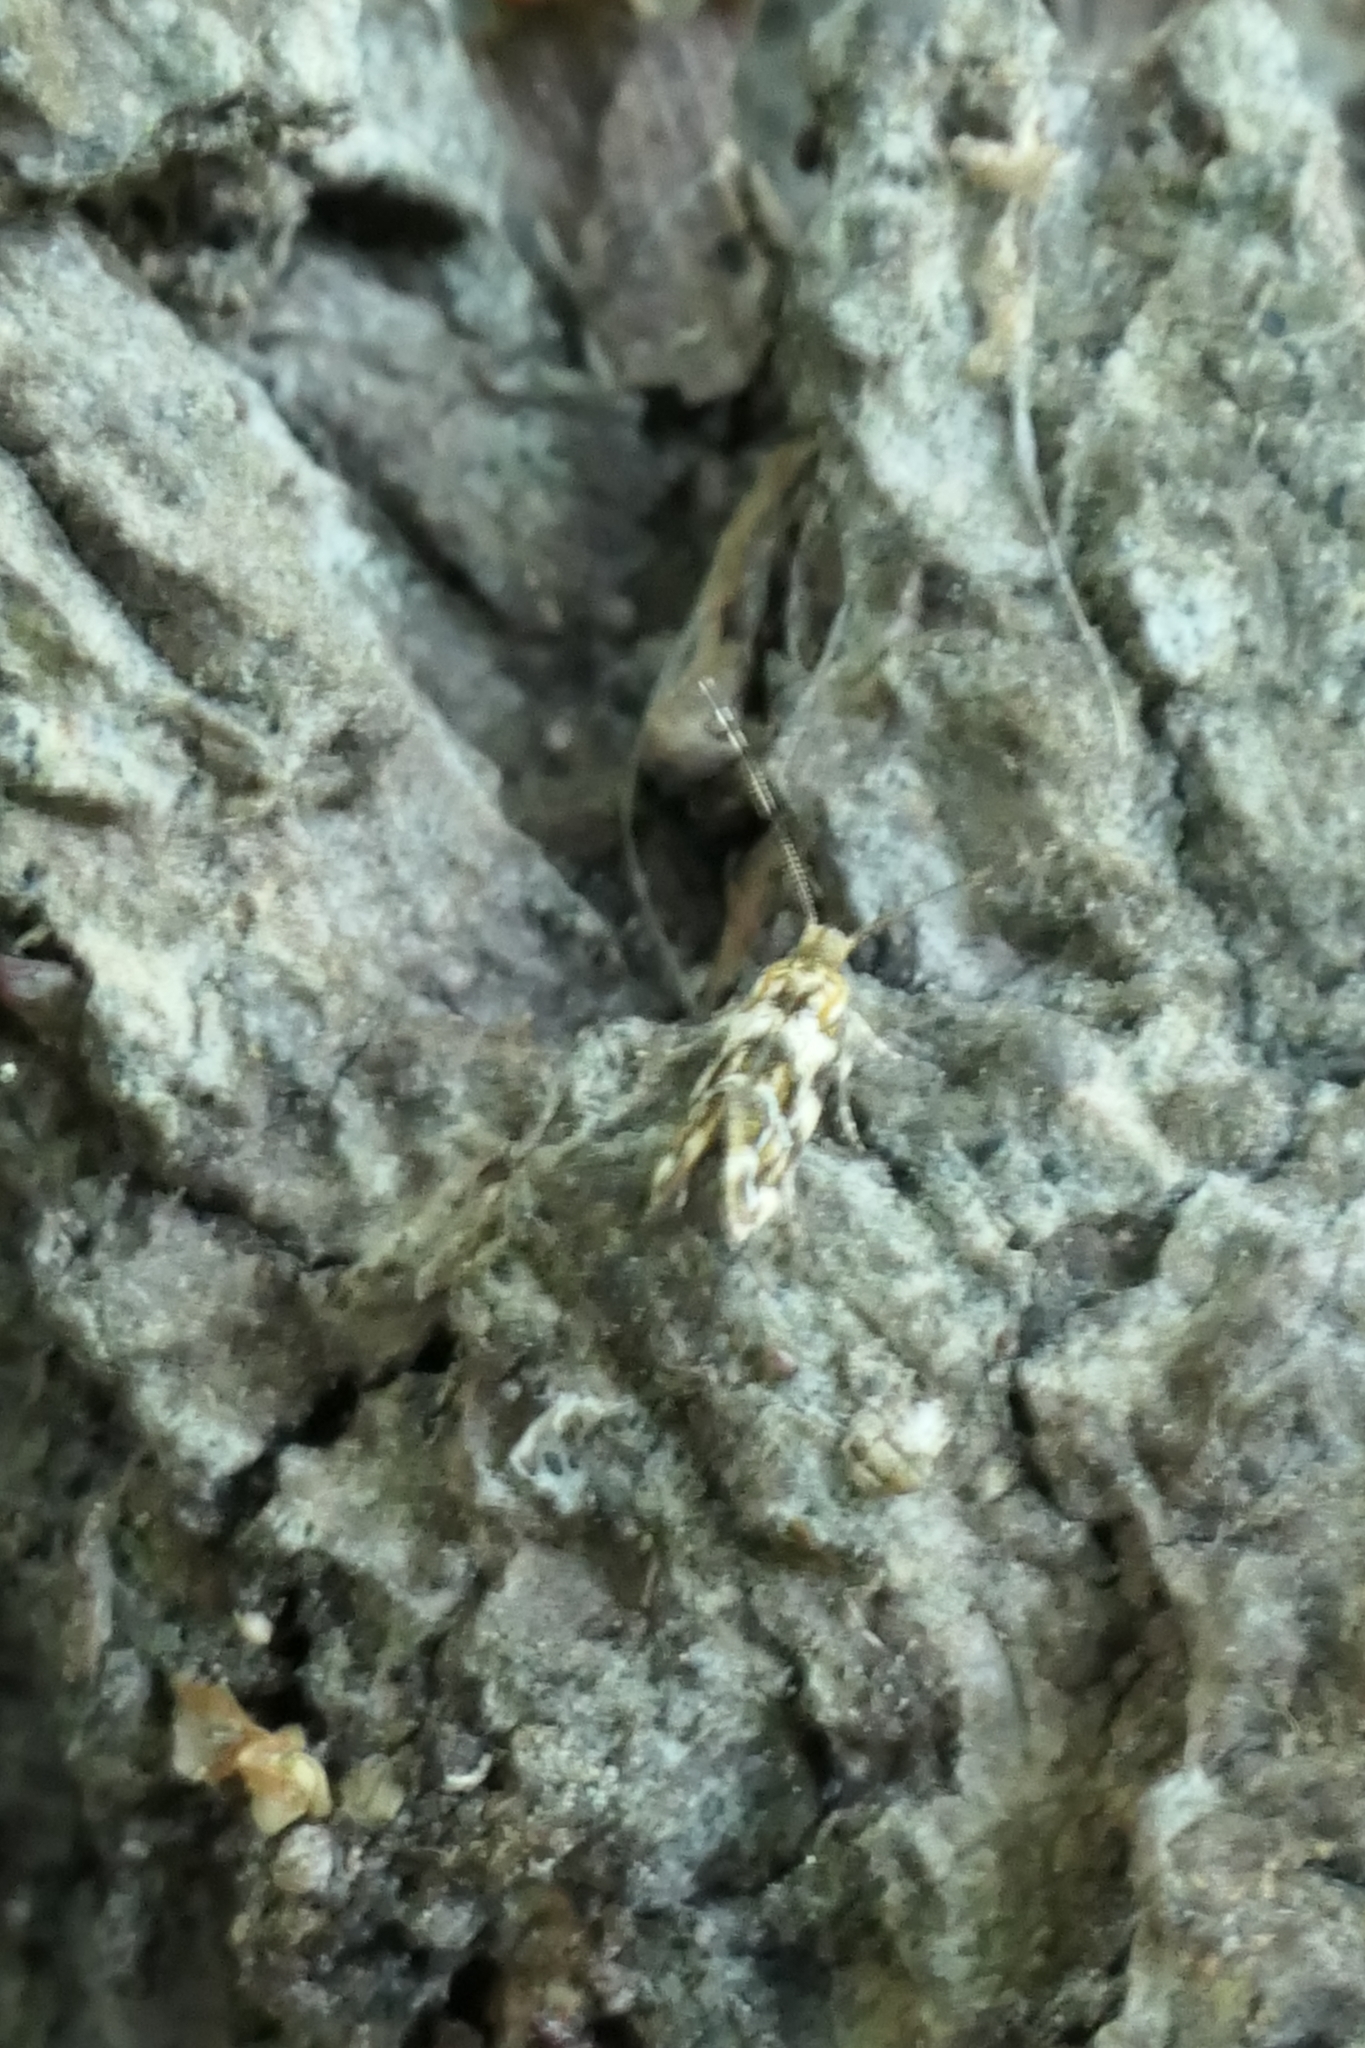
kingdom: Animalia
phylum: Arthropoda
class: Insecta
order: Lepidoptera
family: Dryadaulidae
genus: Dryadaula
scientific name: Dryadaula pactolia
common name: Cellar clothes
